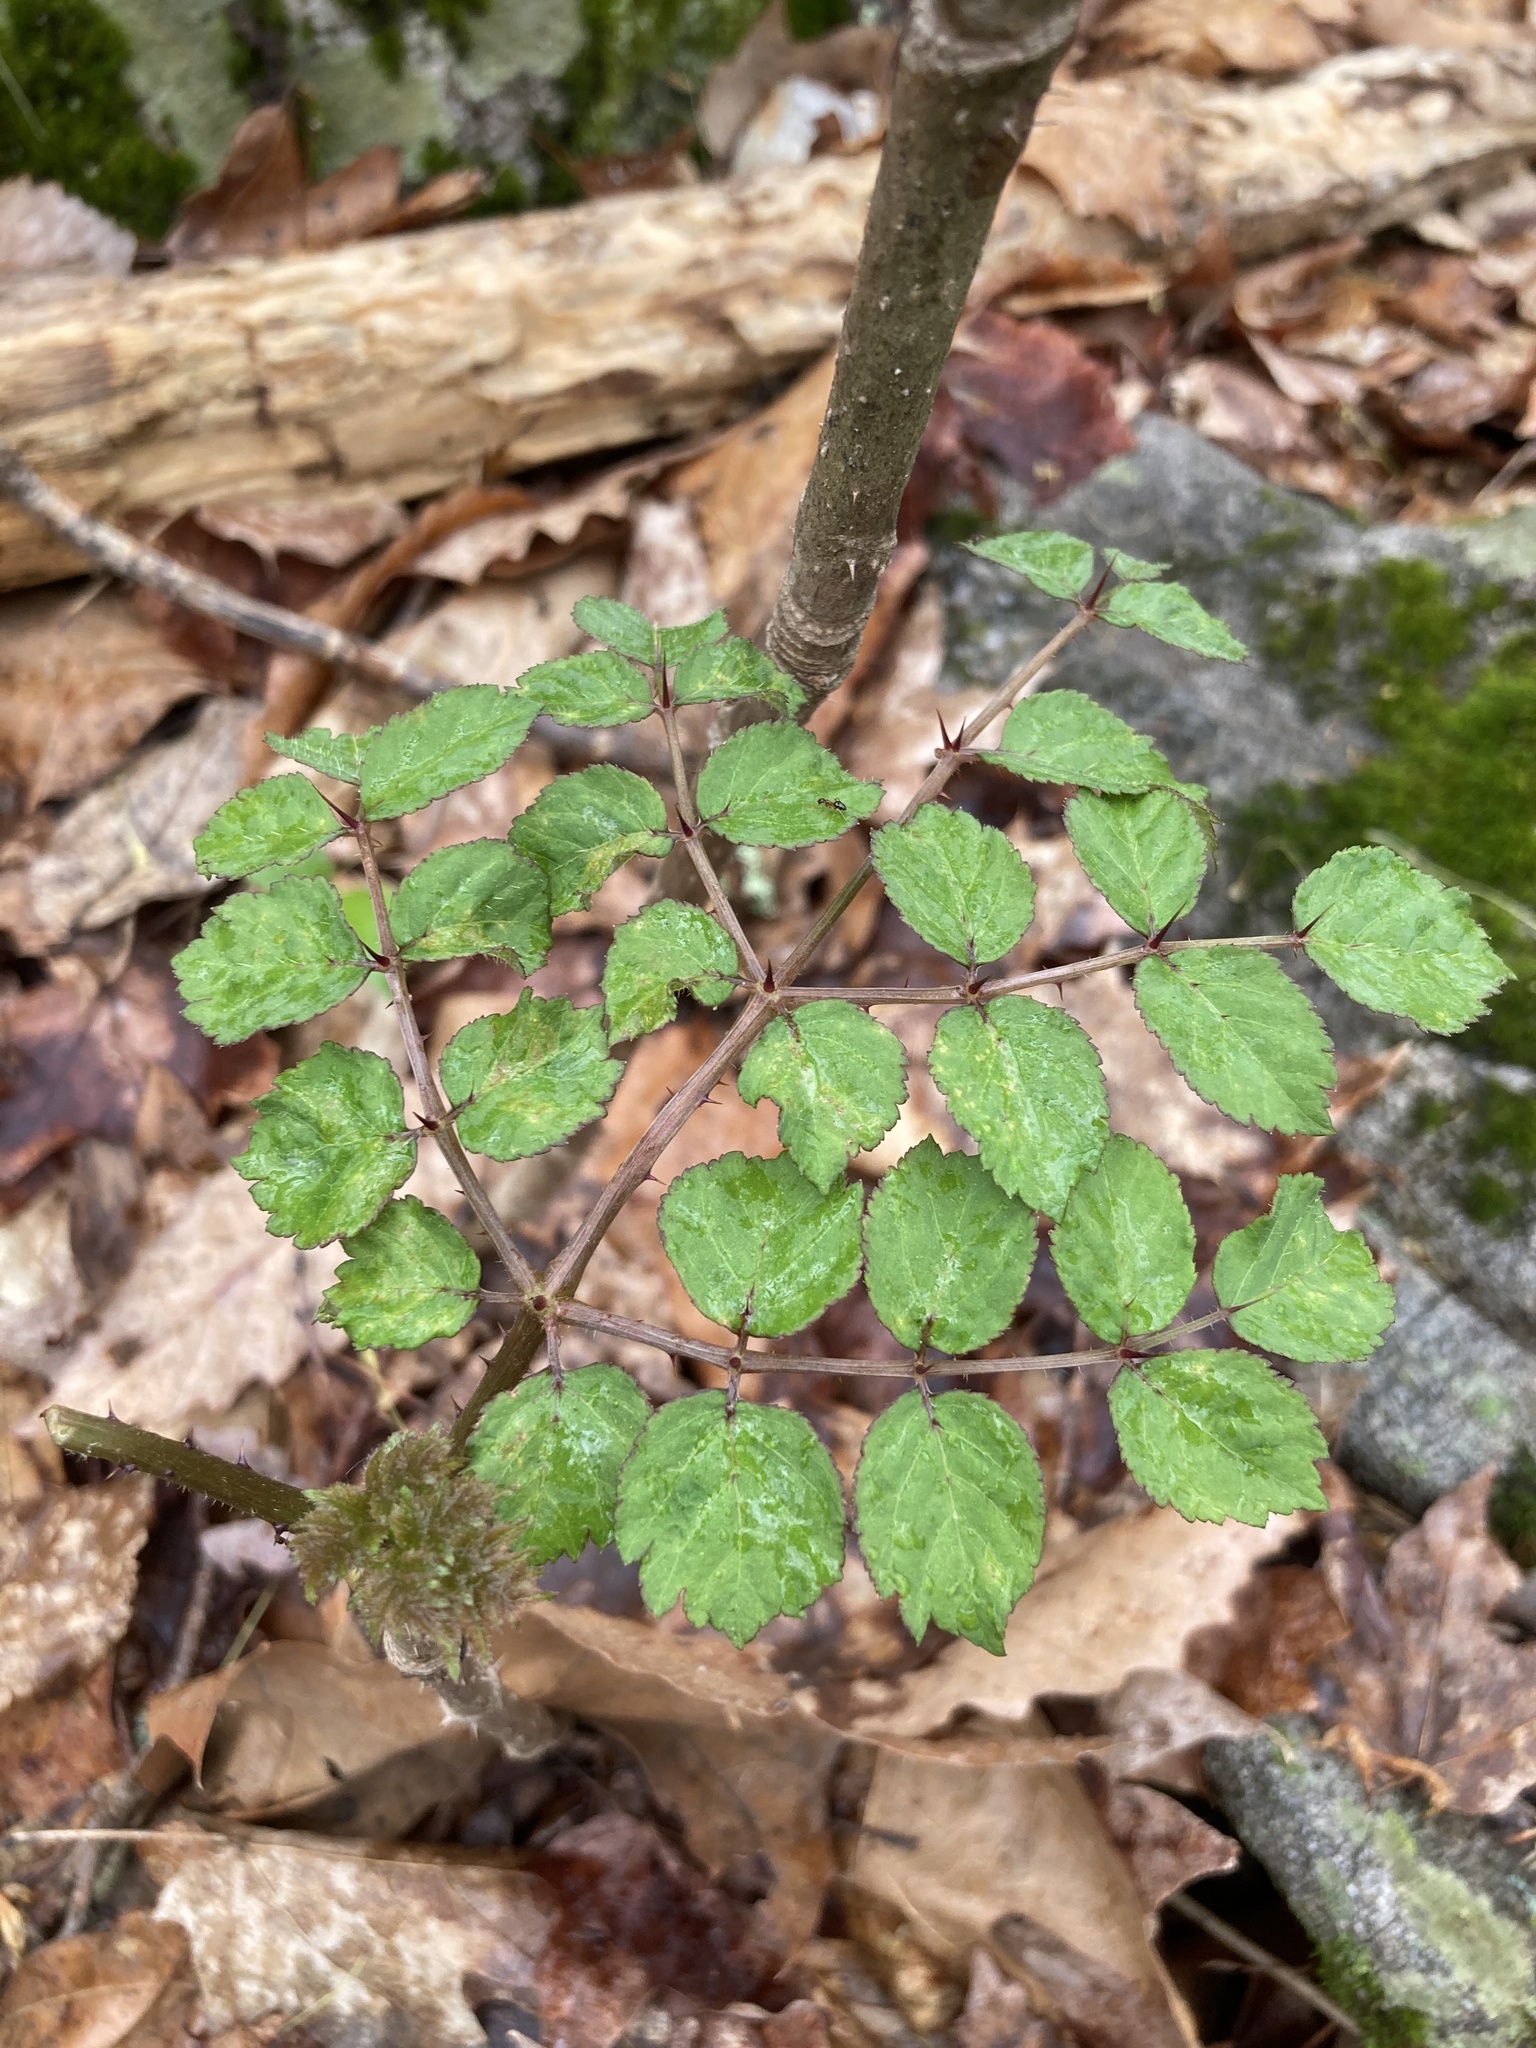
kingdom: Plantae
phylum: Tracheophyta
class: Magnoliopsida
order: Apiales
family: Araliaceae
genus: Aralia
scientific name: Aralia elata
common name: Japanese angelica-tree
